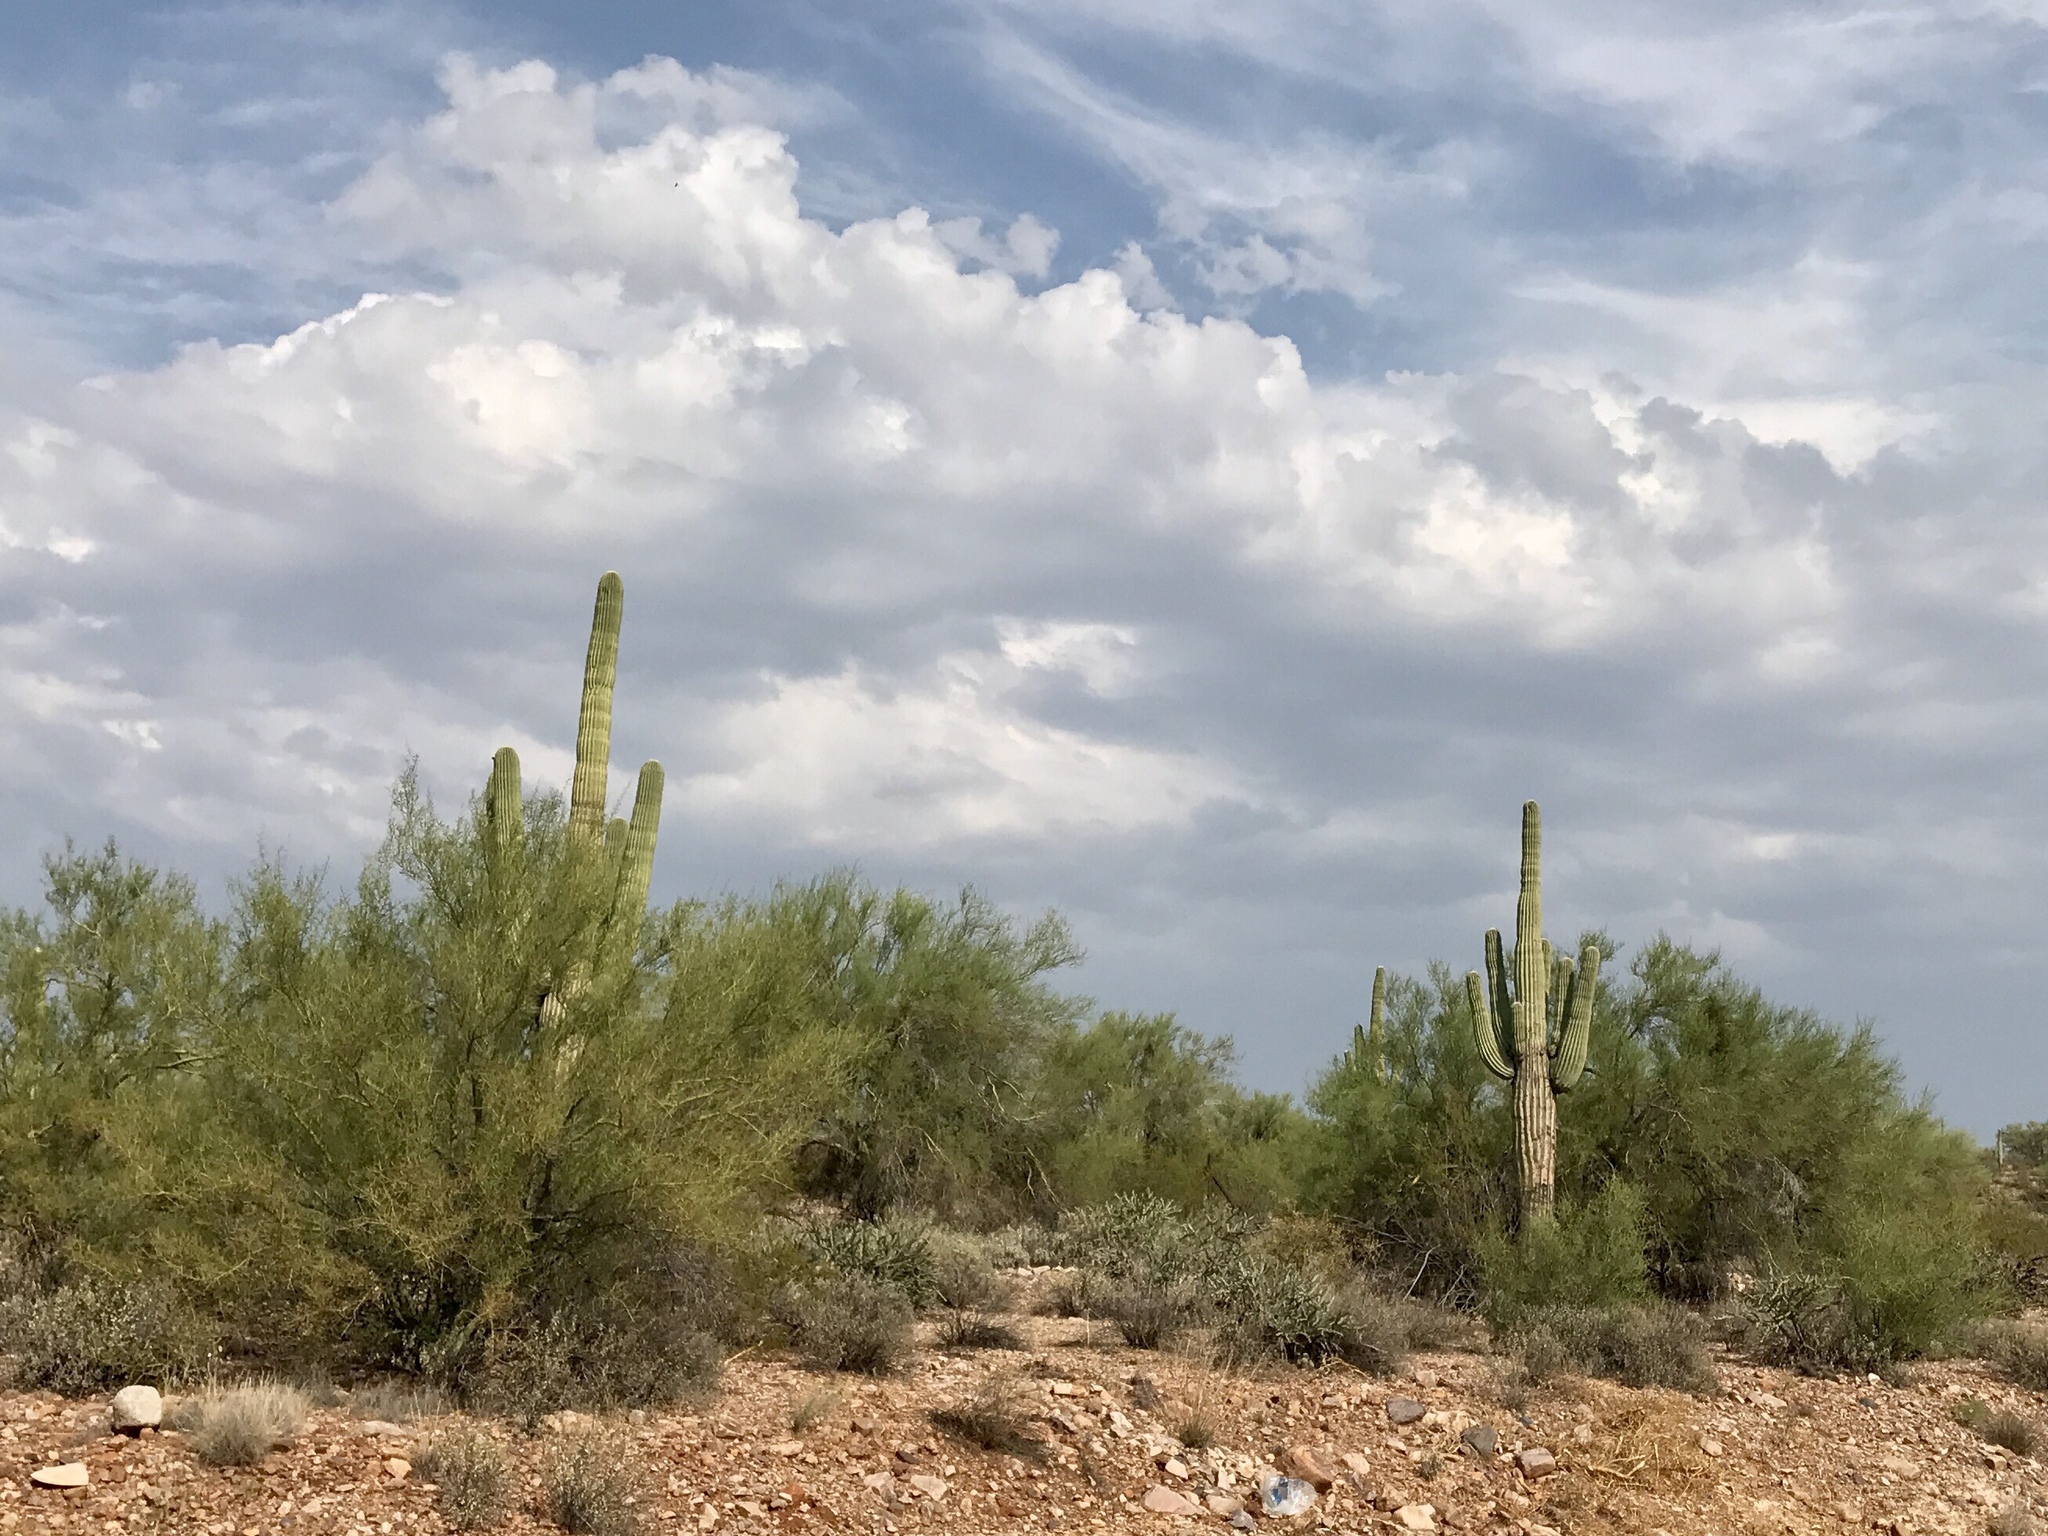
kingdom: Plantae
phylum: Tracheophyta
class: Magnoliopsida
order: Caryophyllales
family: Cactaceae
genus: Carnegiea
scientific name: Carnegiea gigantea
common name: Saguaro
